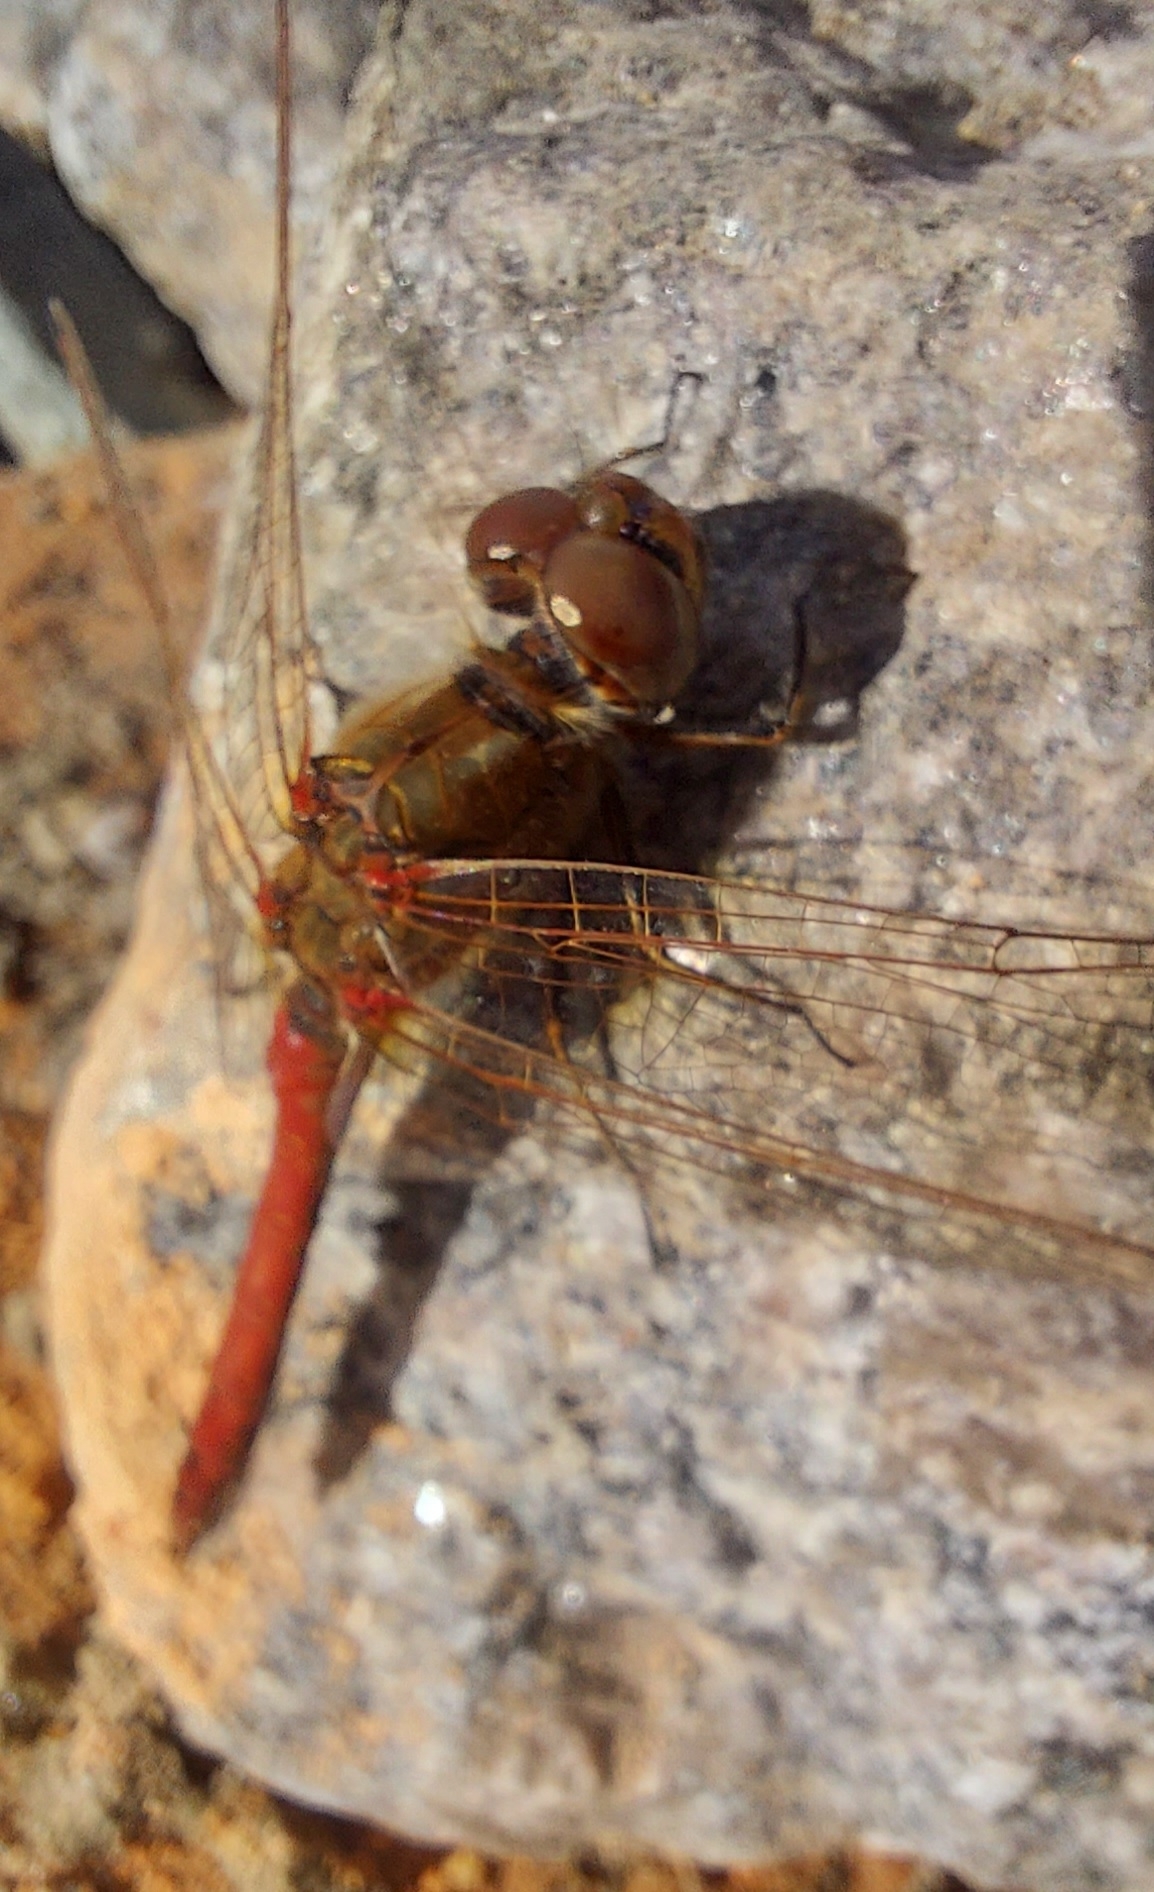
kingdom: Animalia
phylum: Arthropoda
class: Insecta
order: Odonata
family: Libellulidae
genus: Sympetrum
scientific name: Sympetrum vulgatum
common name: Vagrant darter
